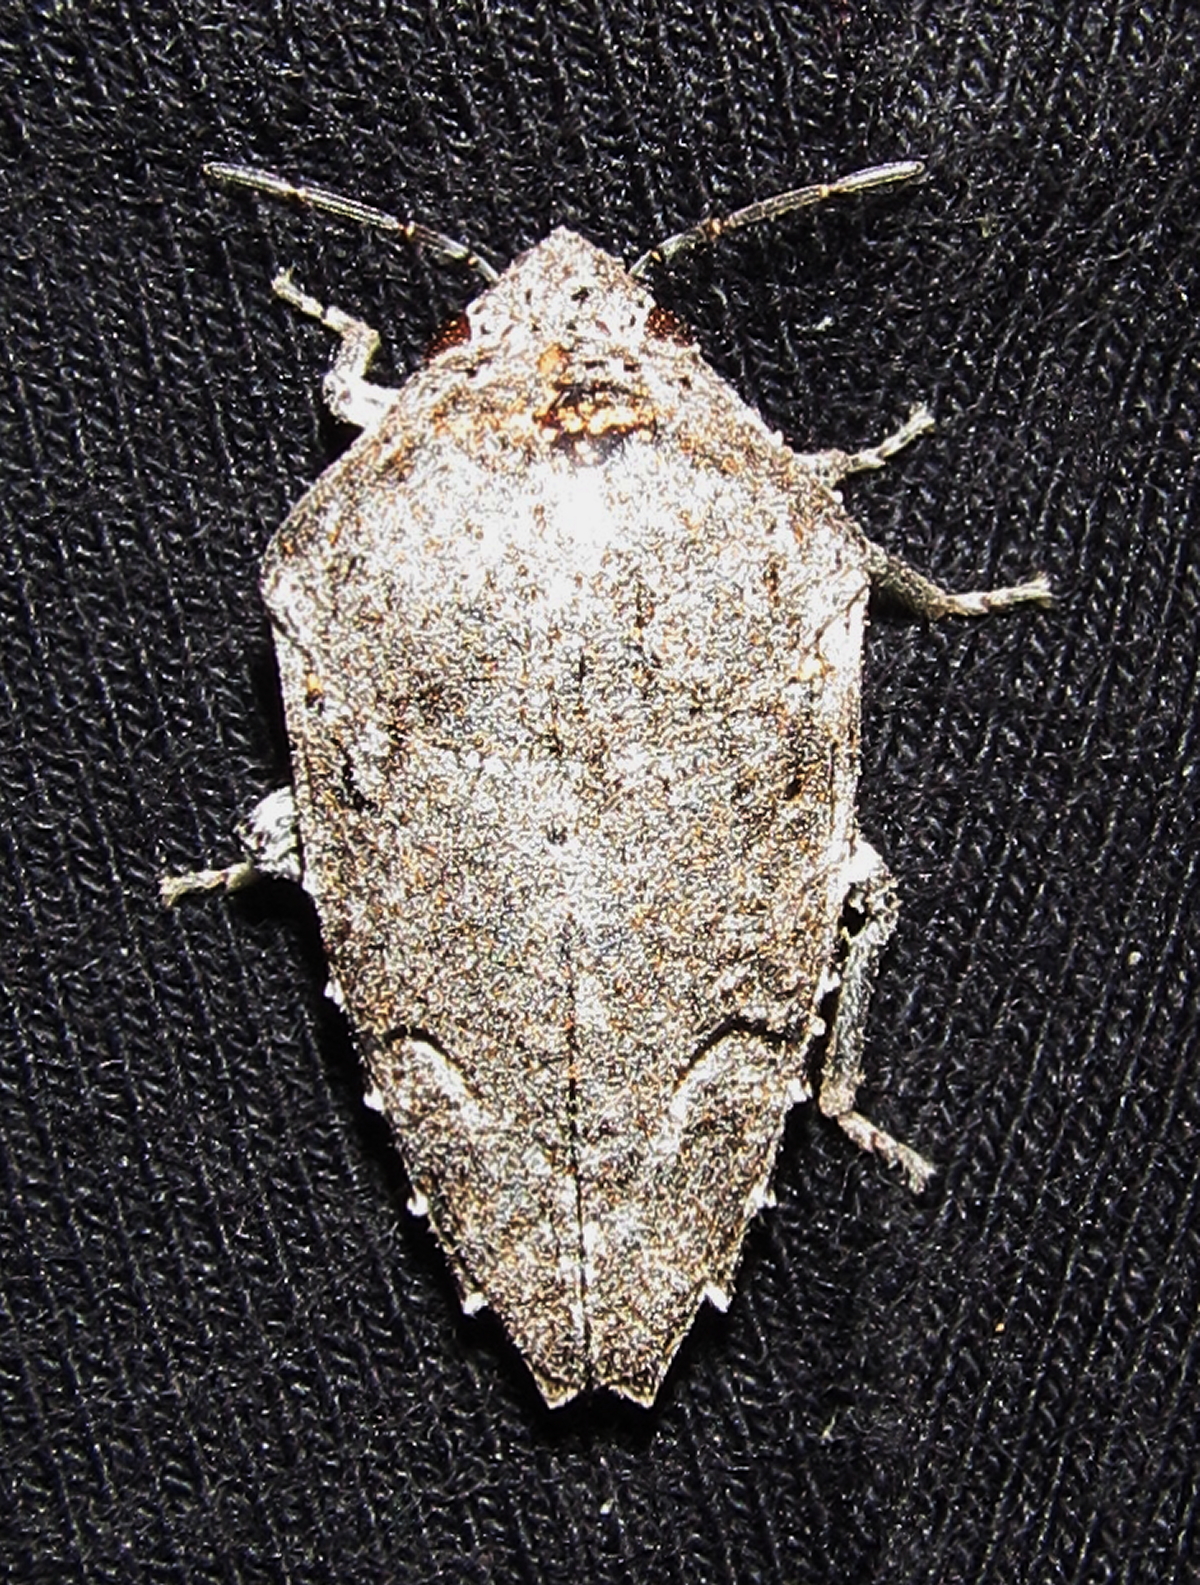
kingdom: Animalia
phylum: Arthropoda
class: Insecta
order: Hemiptera
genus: Elvisura
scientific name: Elvisura irrorata
